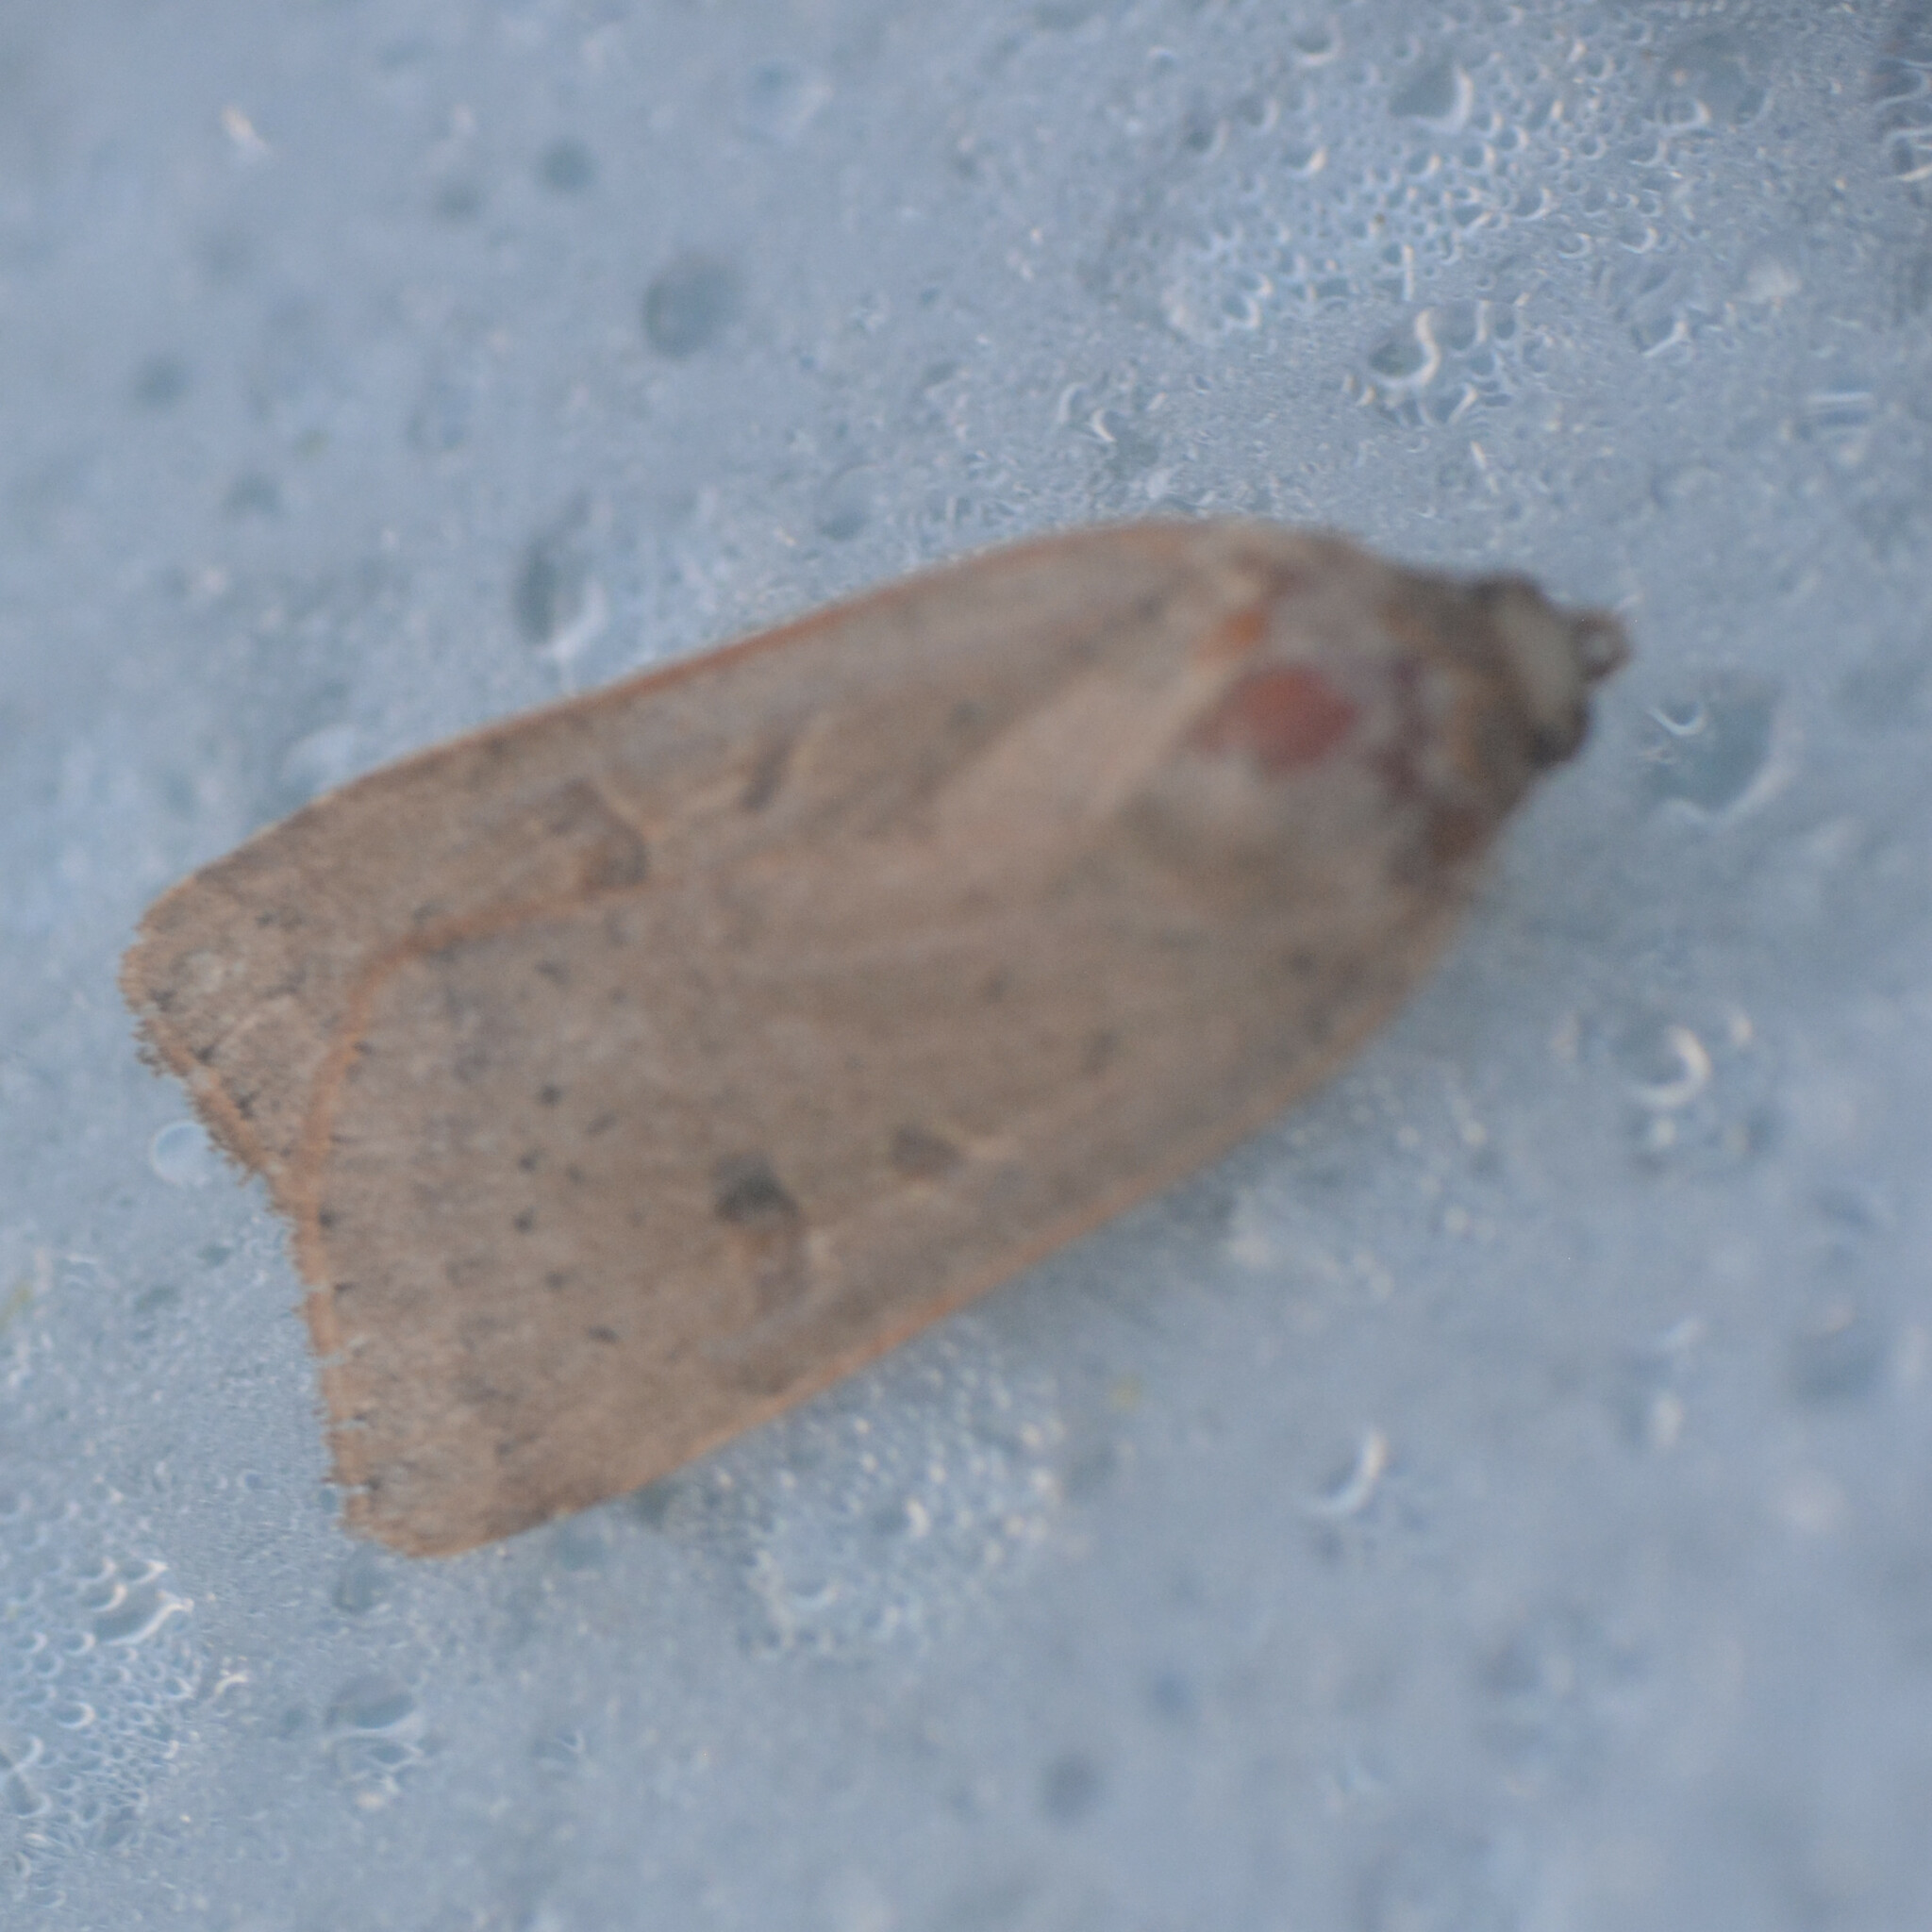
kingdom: Animalia
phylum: Arthropoda
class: Insecta
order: Lepidoptera
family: Noctuidae
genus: Noctua
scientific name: Noctua comes
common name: Lesser yellow underwing
